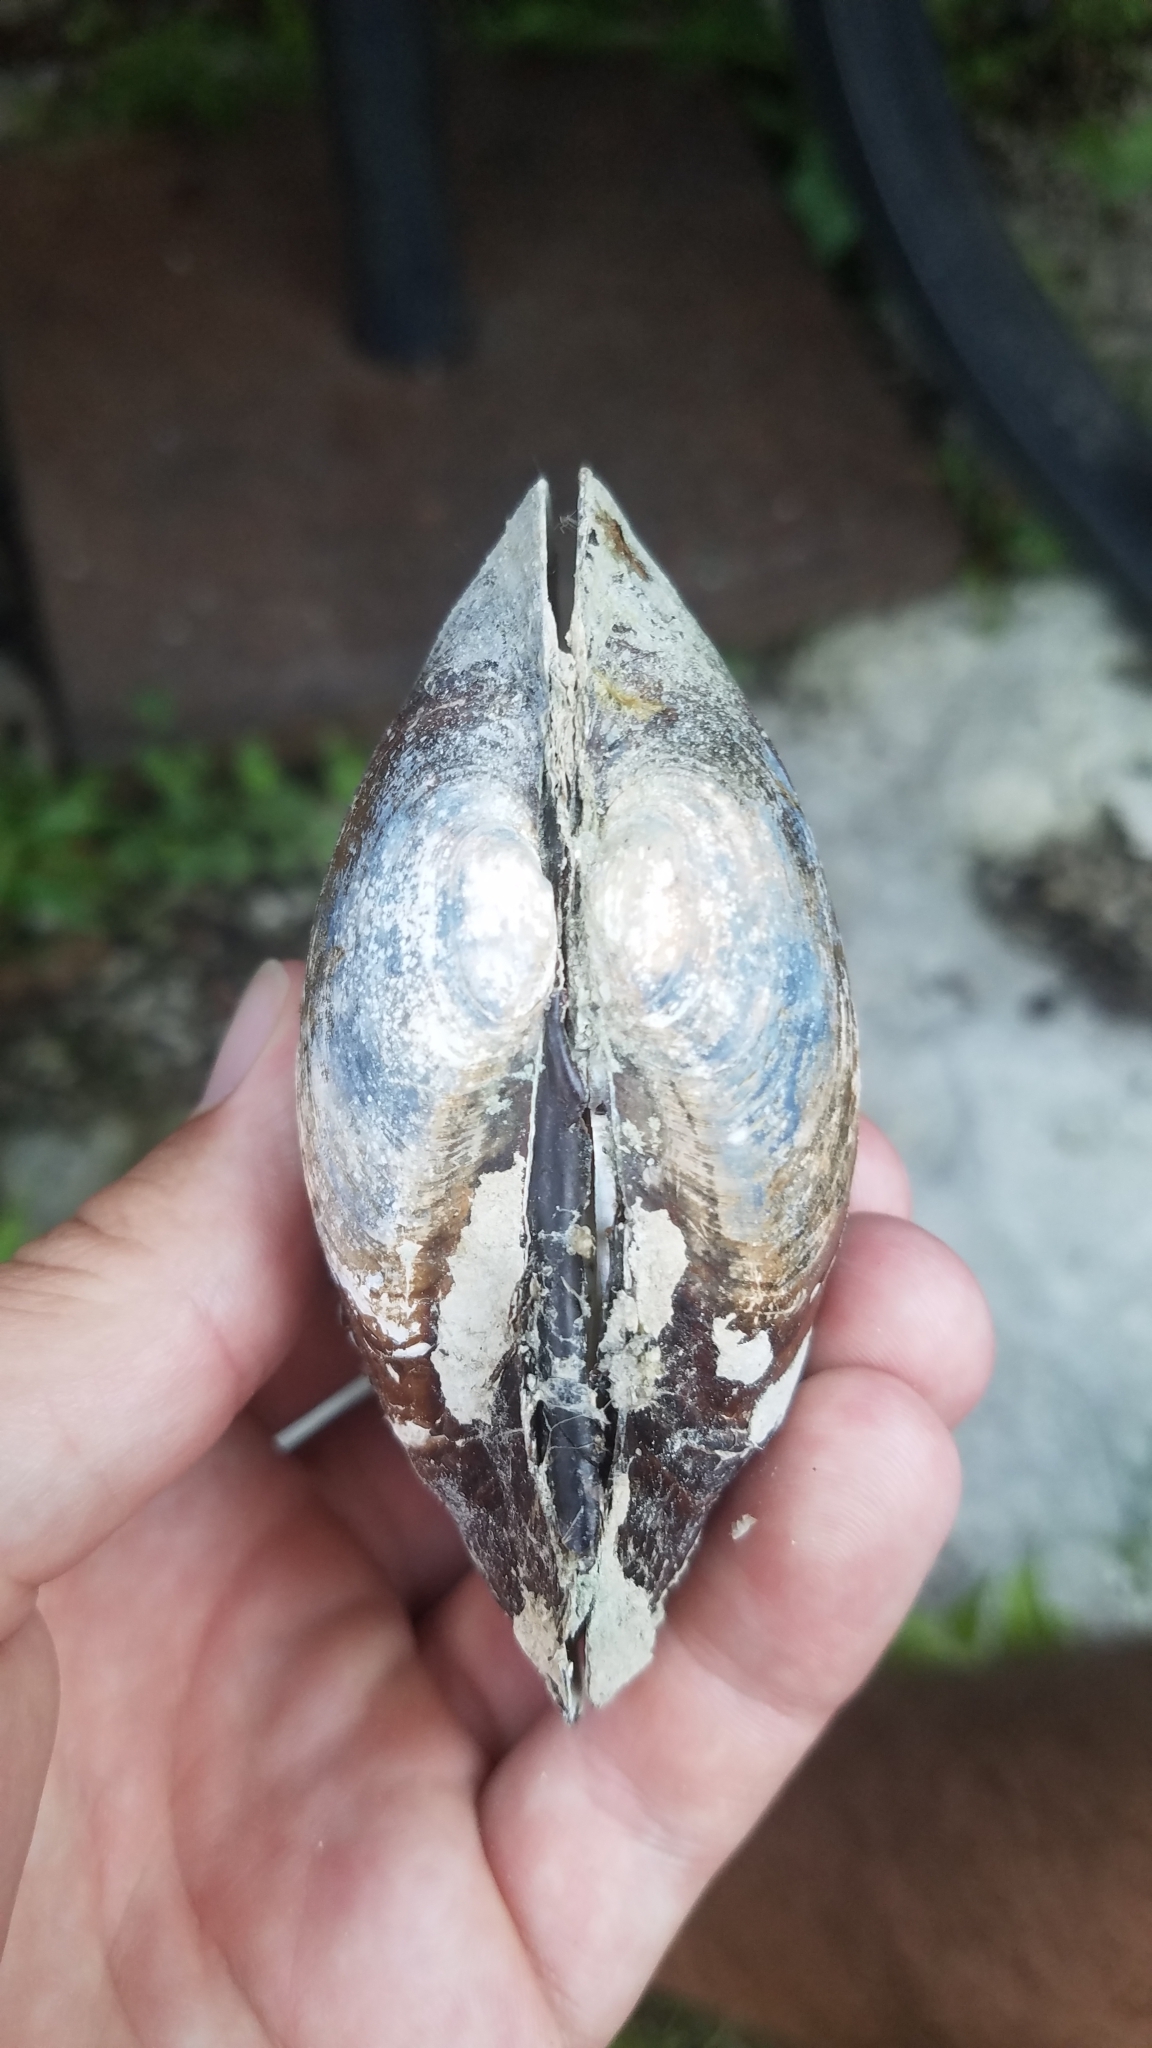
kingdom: Animalia
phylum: Mollusca
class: Bivalvia
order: Unionida
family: Unionidae
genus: Lampsilis
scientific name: Lampsilis siliquoidea
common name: Fatmucket
